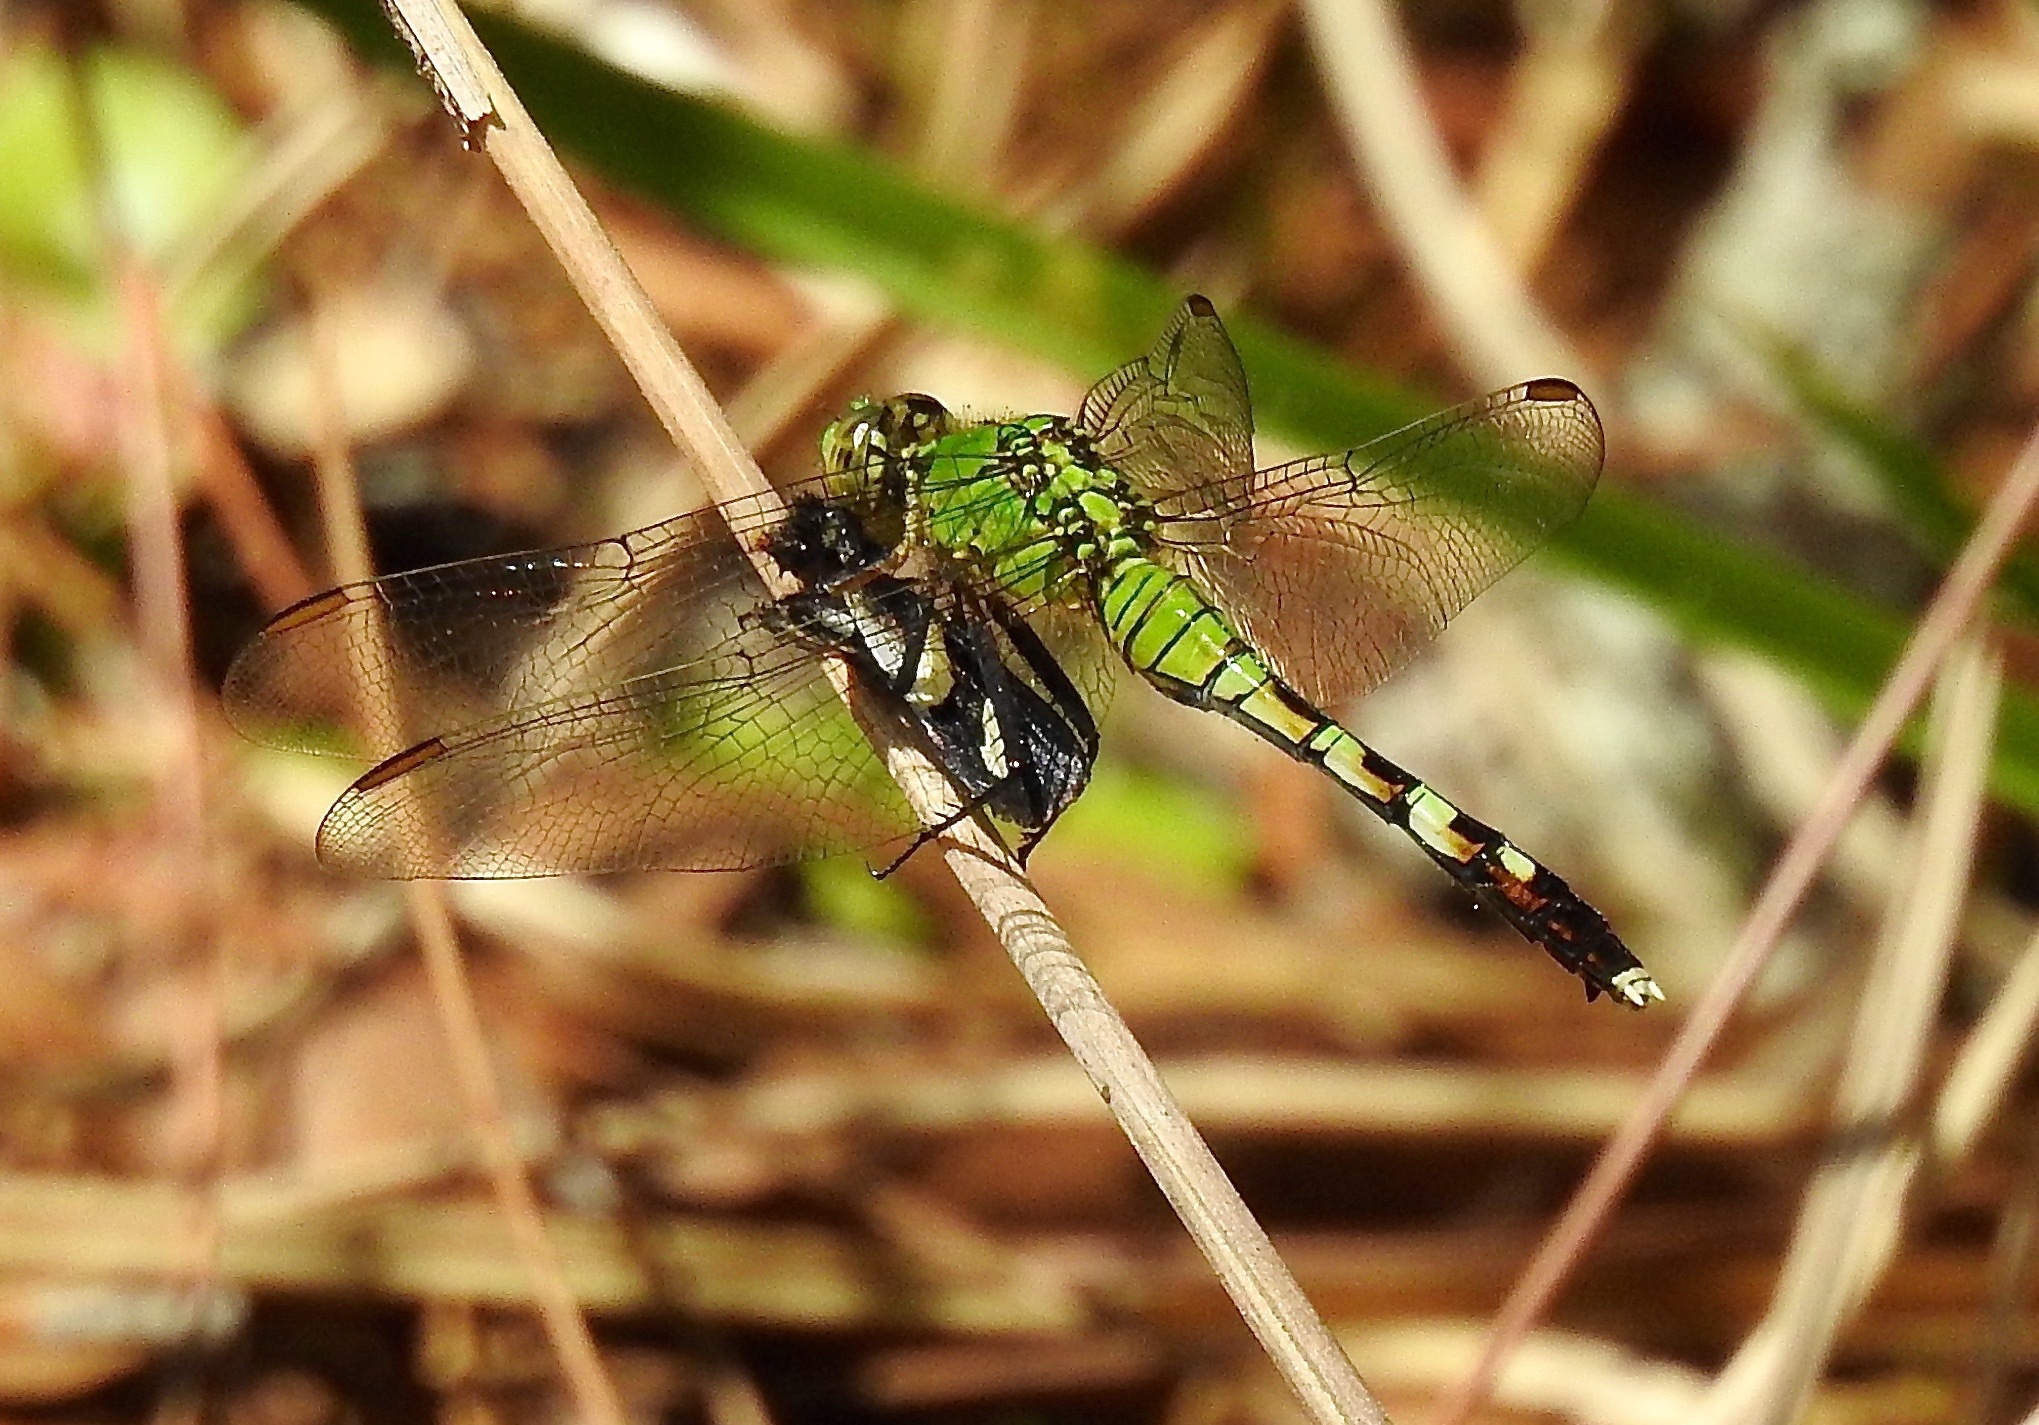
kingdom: Animalia
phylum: Arthropoda
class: Insecta
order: Odonata
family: Libellulidae
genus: Erythemis
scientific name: Erythemis simplicicollis
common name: Eastern pondhawk
